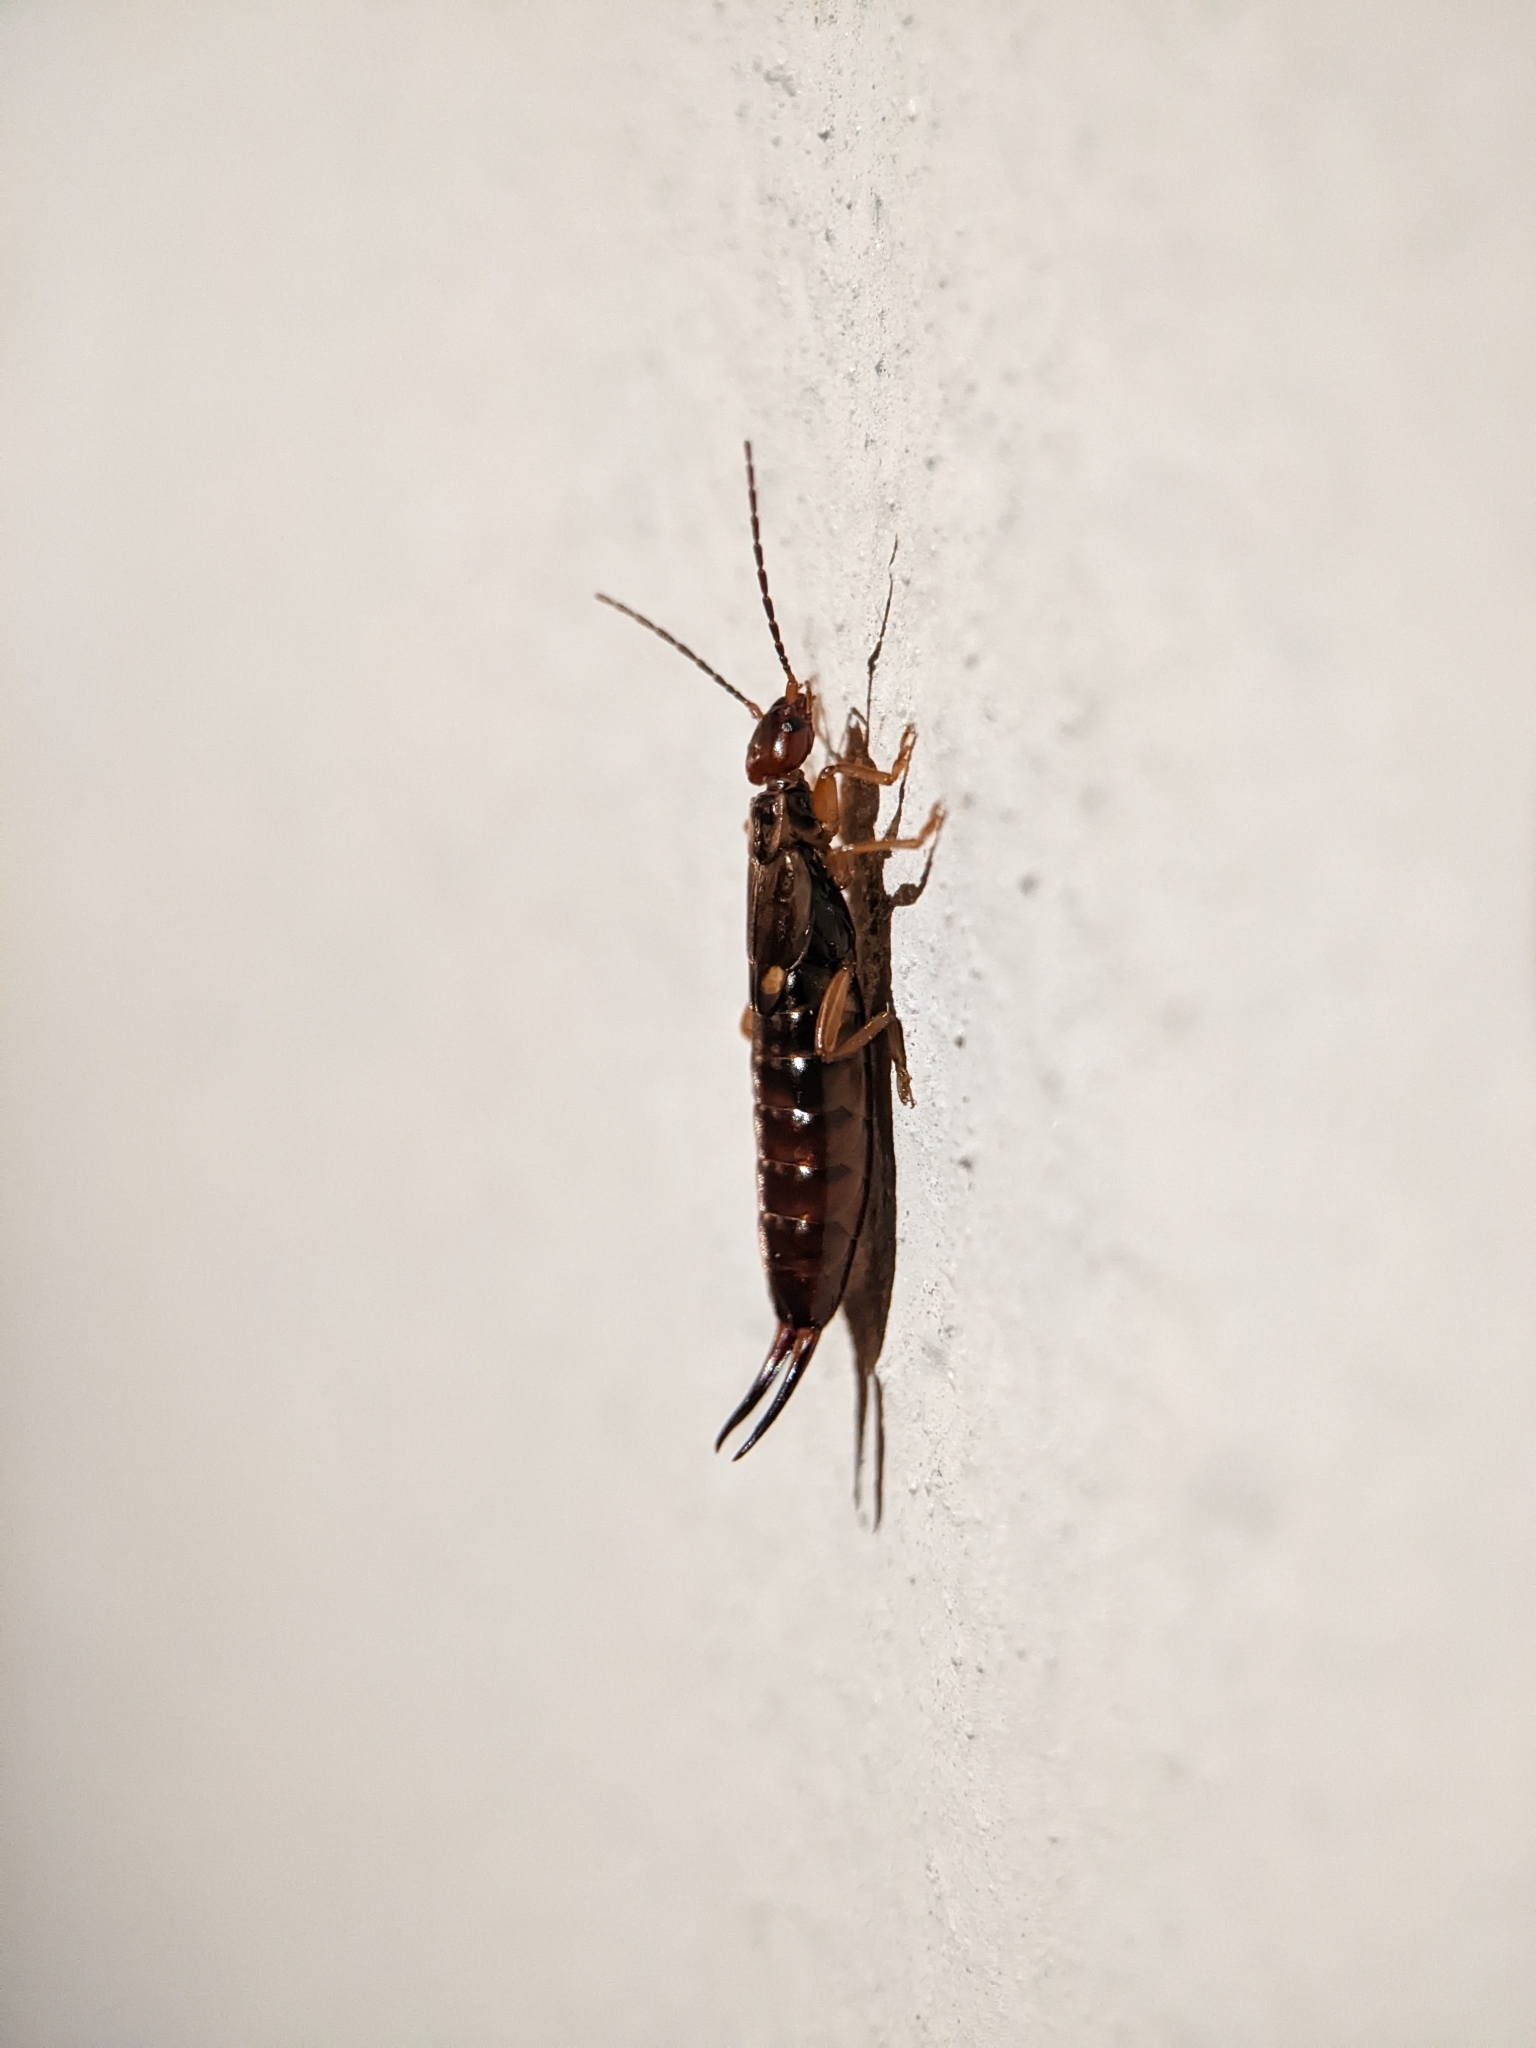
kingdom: Animalia
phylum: Arthropoda
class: Insecta
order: Dermaptera
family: Forficulidae
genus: Forficula
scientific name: Forficula
